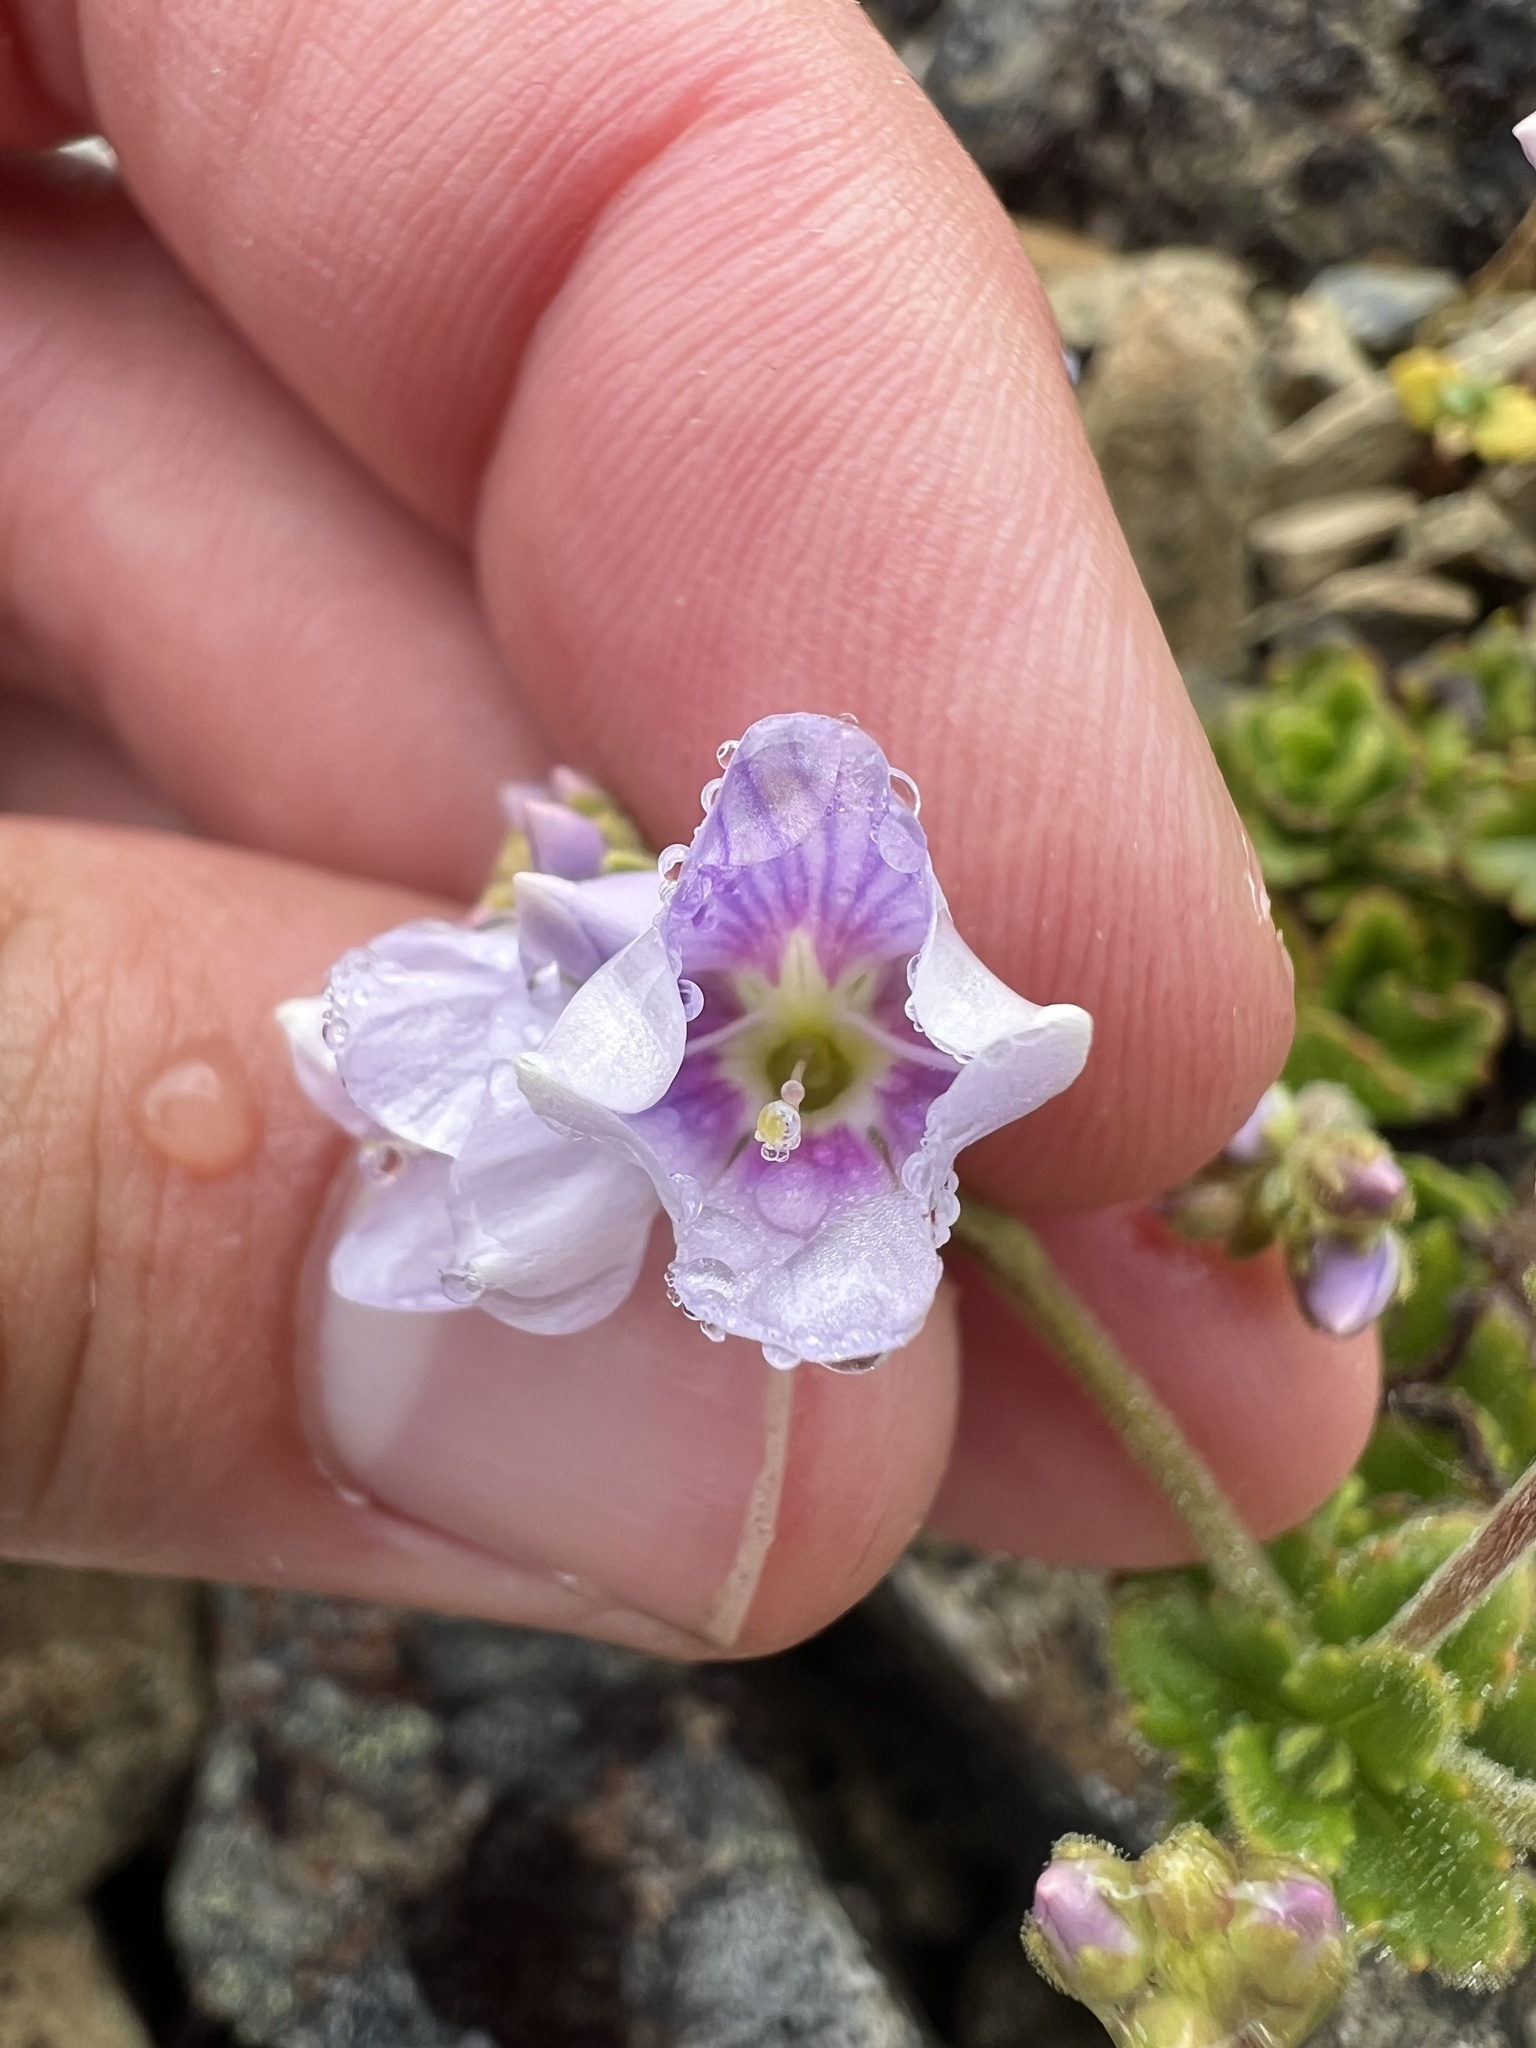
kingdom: Plantae
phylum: Tracheophyta
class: Magnoliopsida
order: Lamiales
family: Plantaginaceae
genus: Veronica
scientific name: Veronica hookeriana
